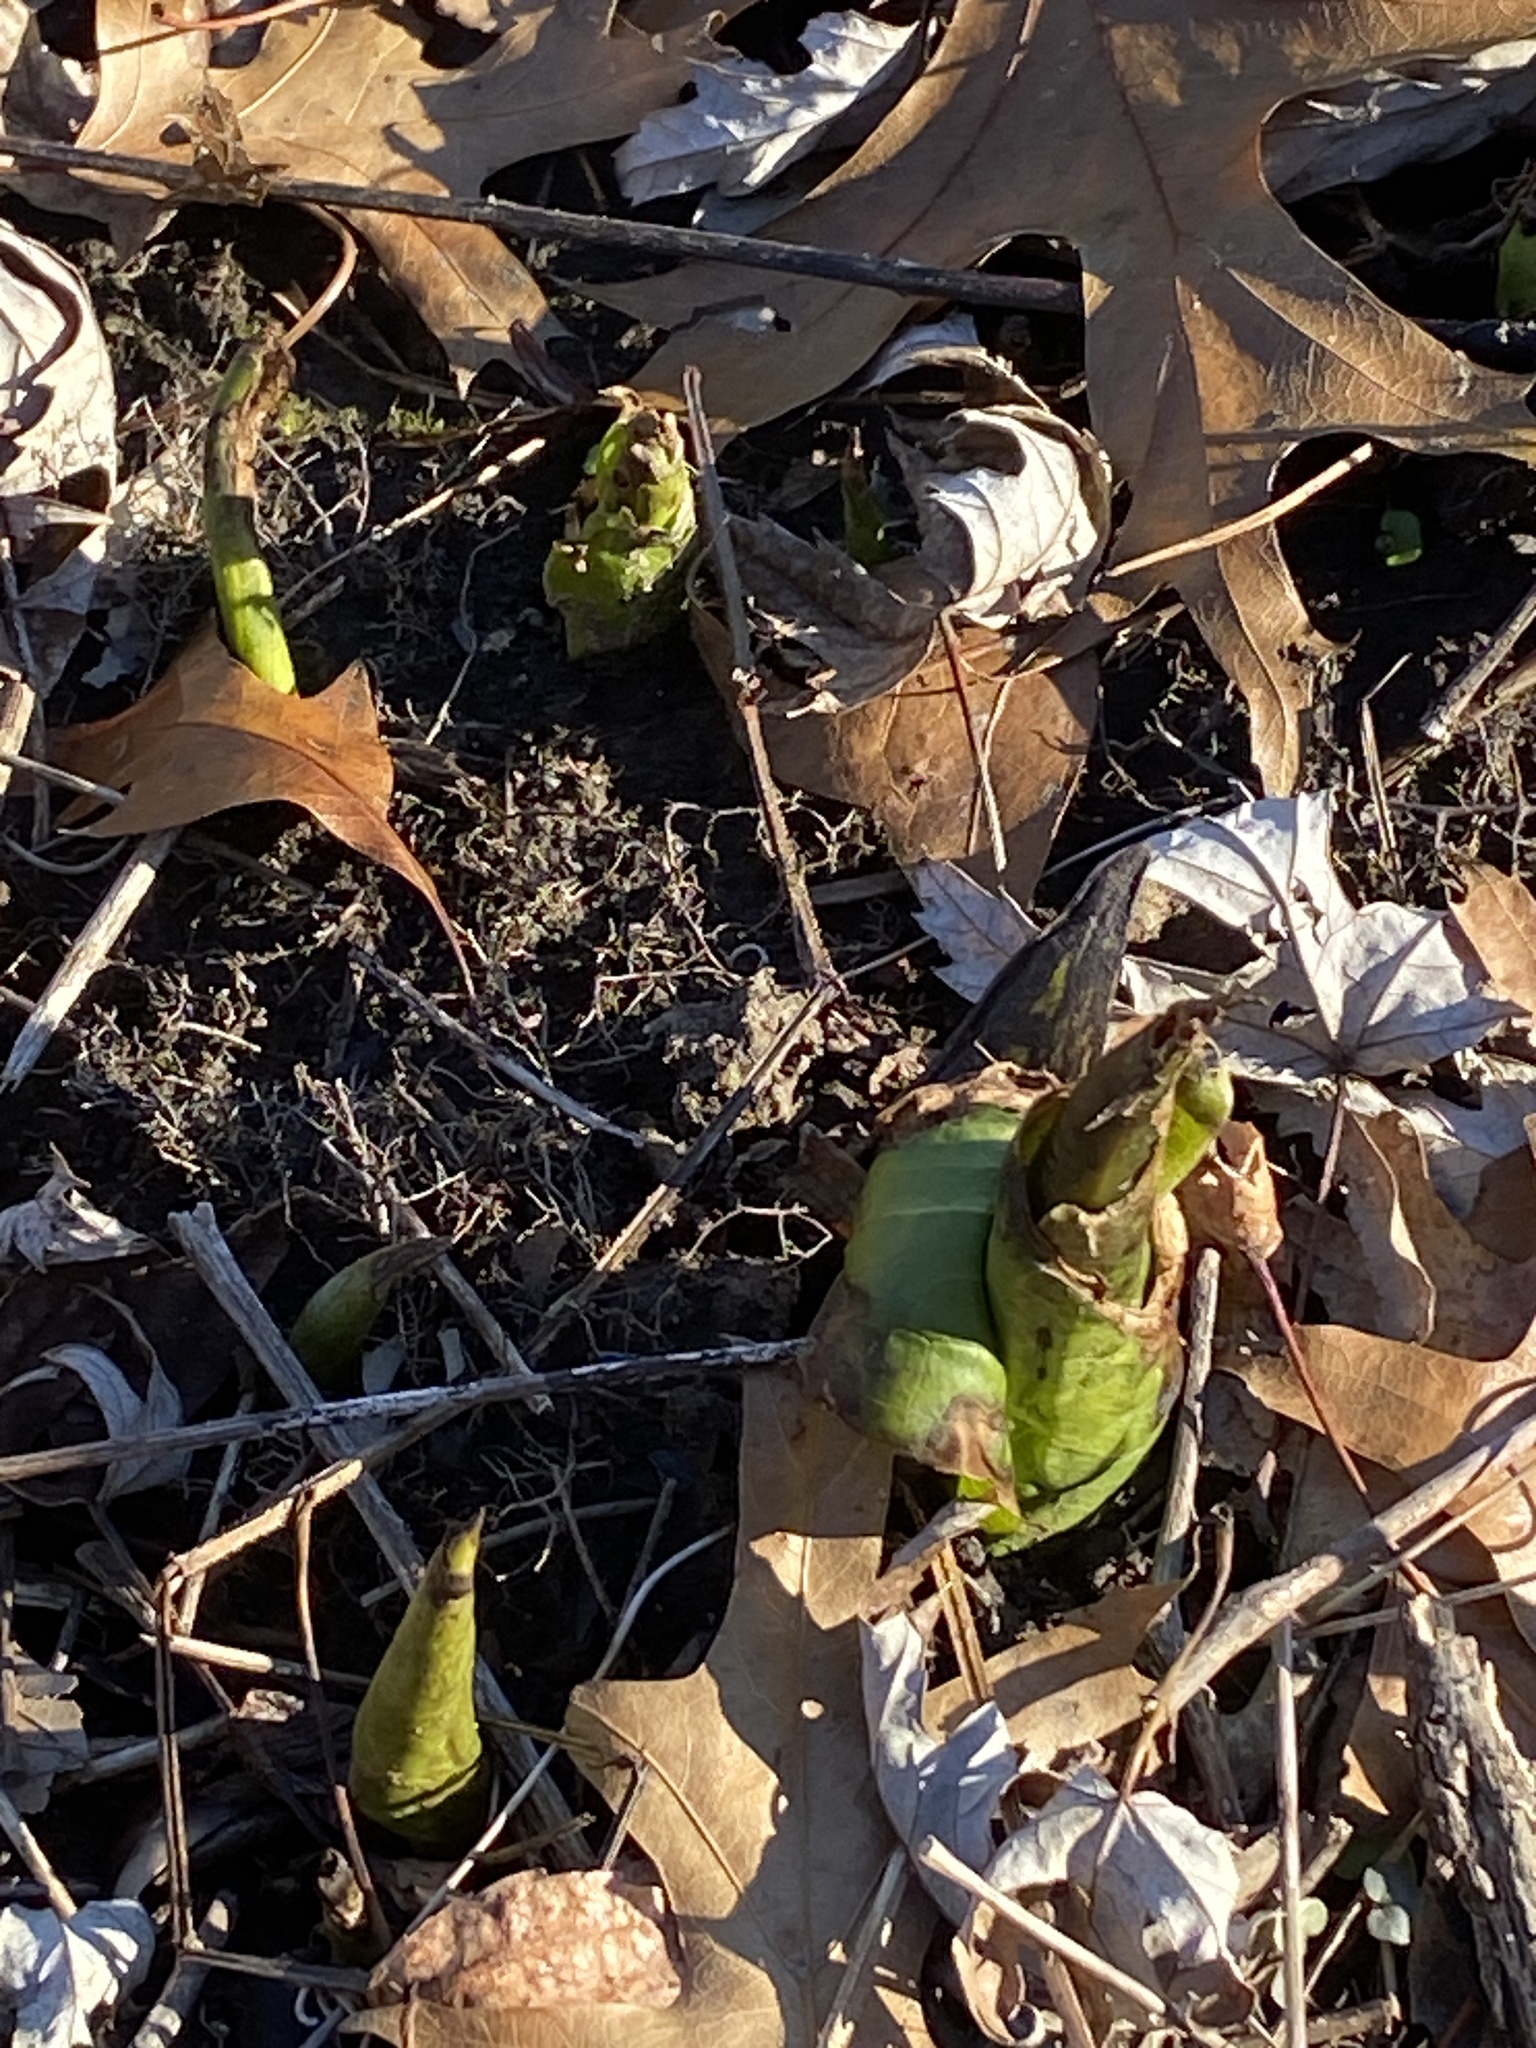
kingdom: Plantae
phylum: Tracheophyta
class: Liliopsida
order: Alismatales
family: Araceae
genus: Symplocarpus
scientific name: Symplocarpus foetidus
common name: Eastern skunk cabbage
